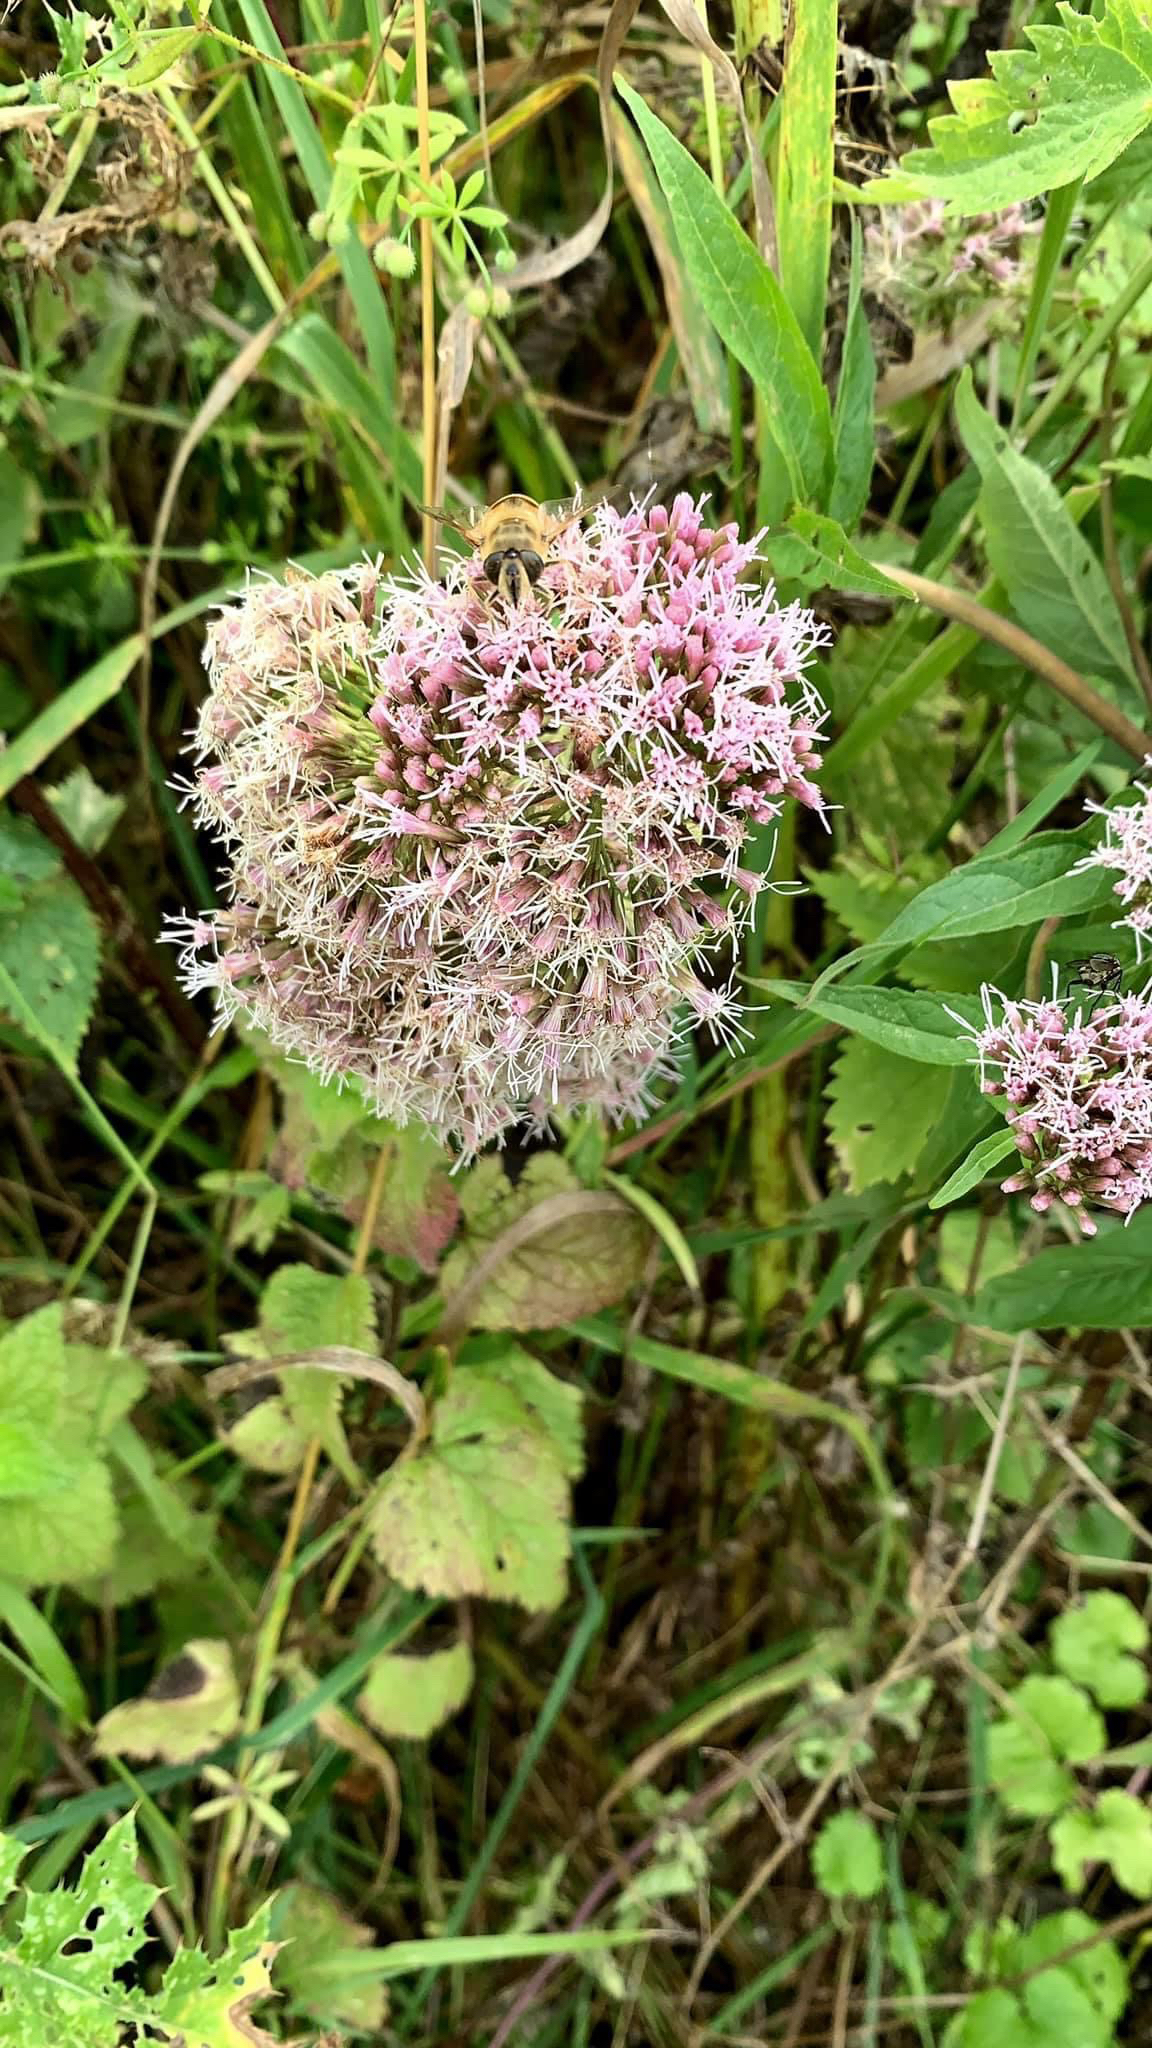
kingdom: Plantae
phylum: Tracheophyta
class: Magnoliopsida
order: Asterales
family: Asteraceae
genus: Eupatorium
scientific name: Eupatorium cannabinum
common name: Hemp-agrimony
